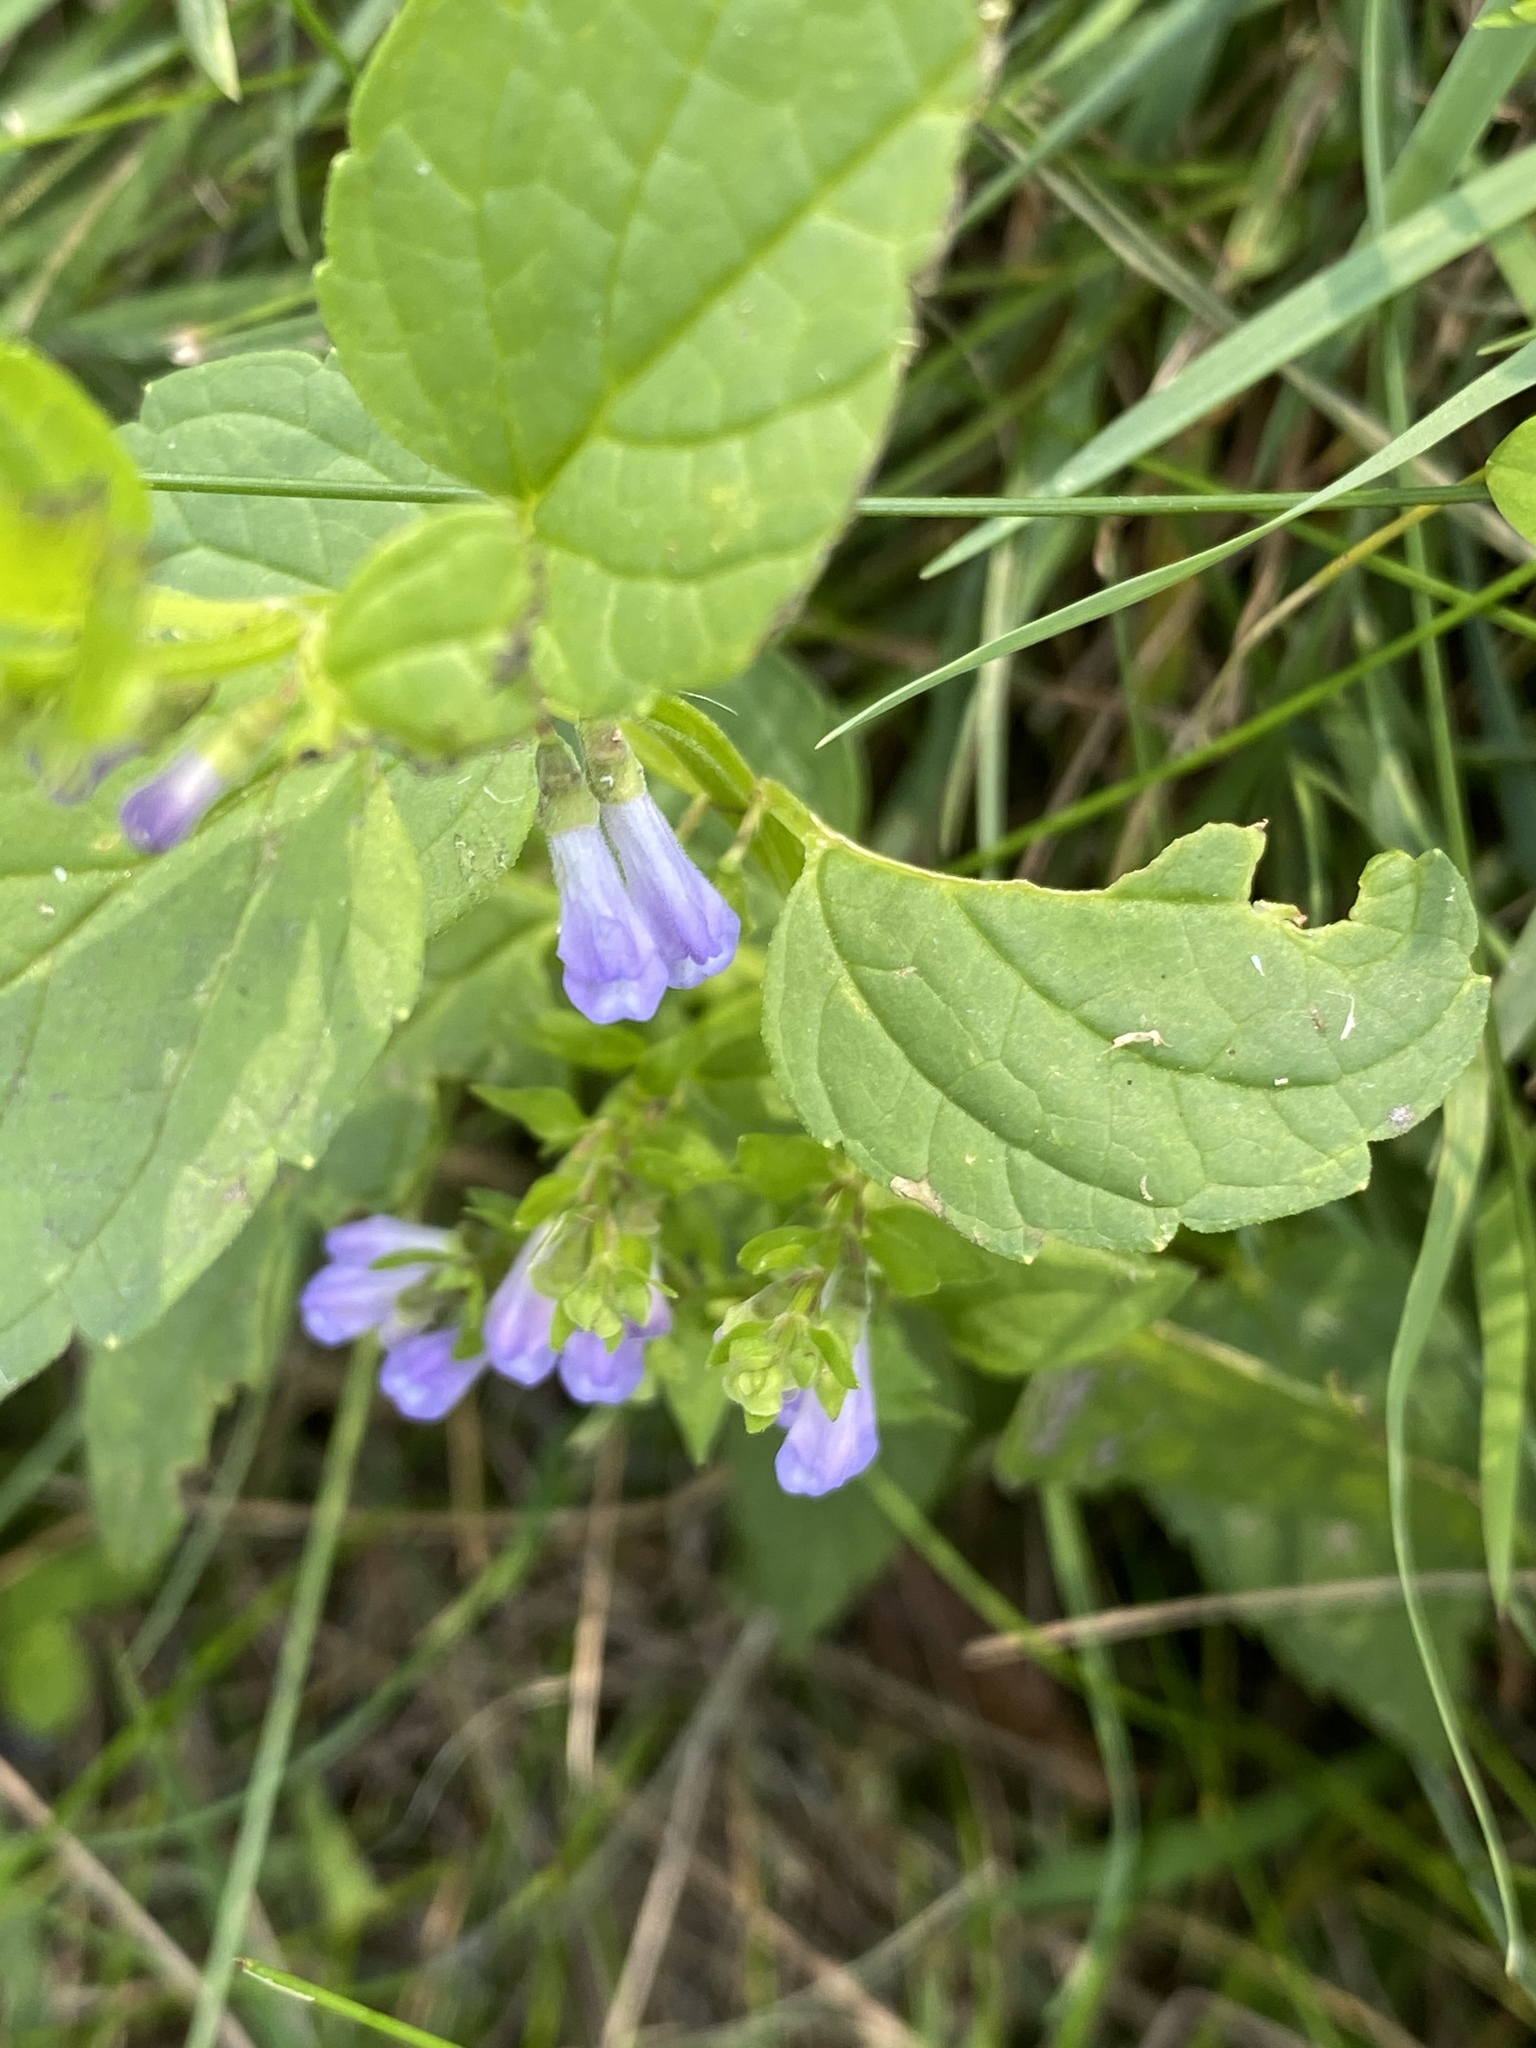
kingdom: Plantae
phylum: Tracheophyta
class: Magnoliopsida
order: Lamiales
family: Lamiaceae
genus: Scutellaria
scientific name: Scutellaria lateriflora
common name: Blue skullcap
